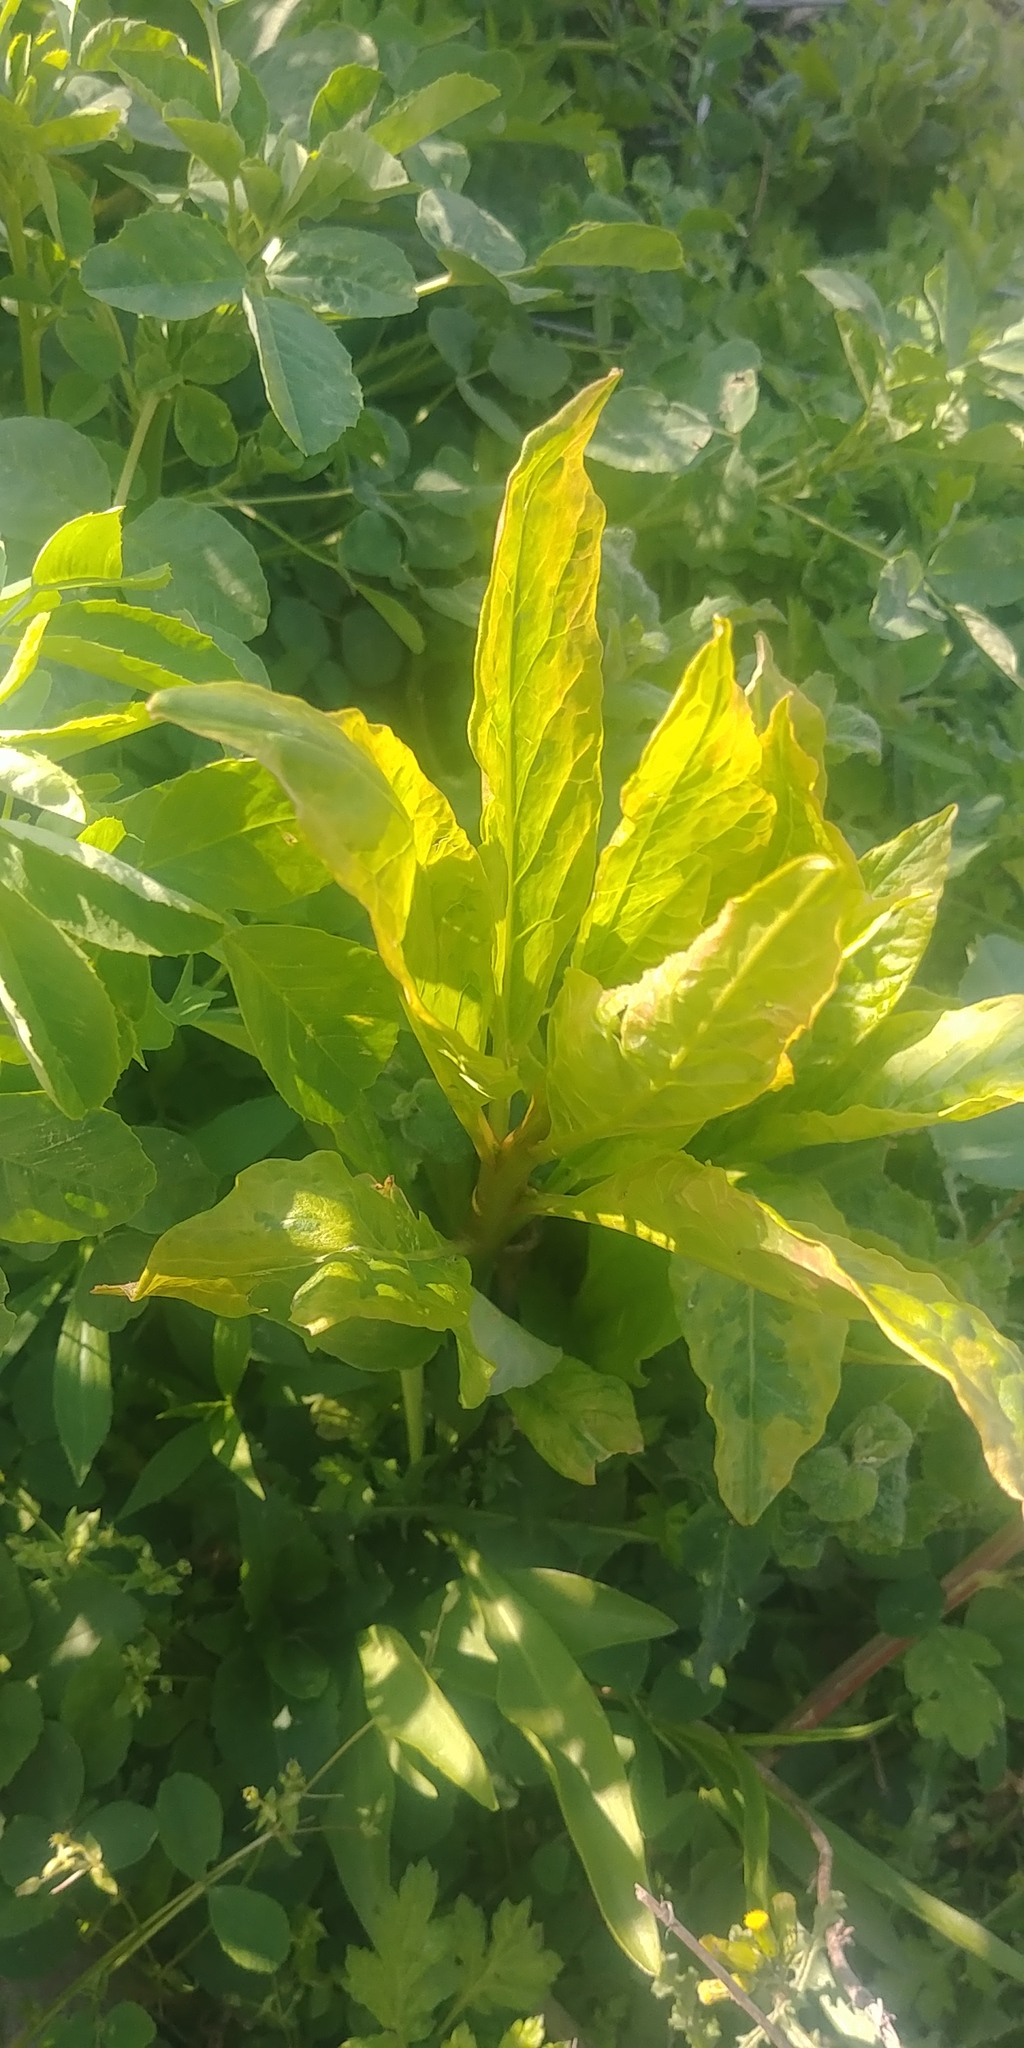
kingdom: Plantae
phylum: Tracheophyta
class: Magnoliopsida
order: Caryophyllales
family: Phytolaccaceae
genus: Phytolacca
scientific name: Phytolacca americana
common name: American pokeweed
